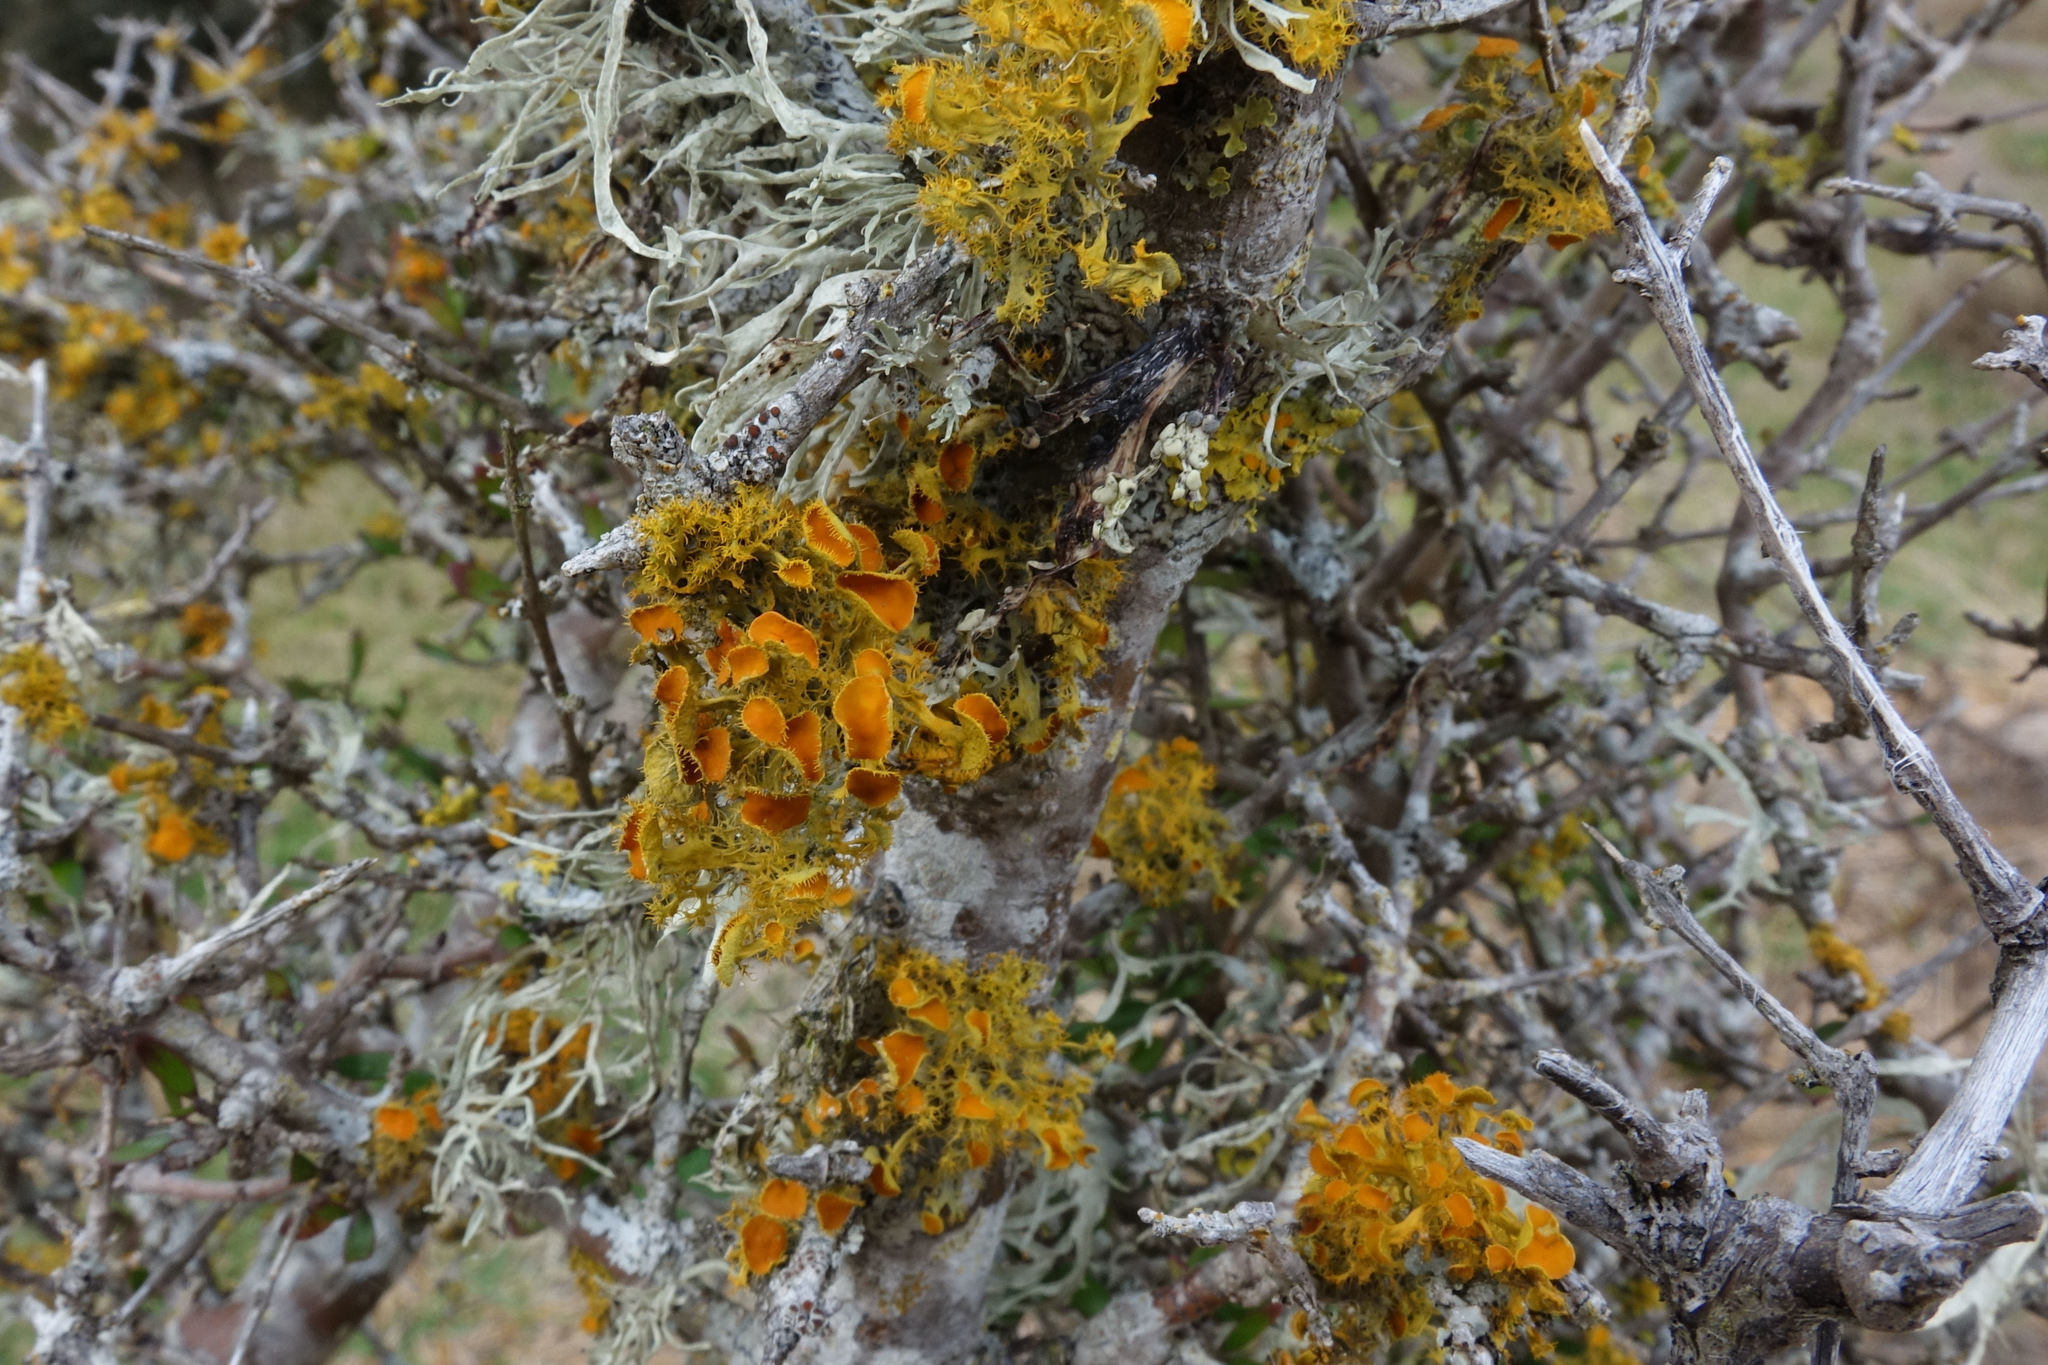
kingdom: Fungi
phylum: Ascomycota
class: Lecanoromycetes
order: Teloschistales
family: Teloschistaceae
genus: Niorma
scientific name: Niorma chrysophthalma
